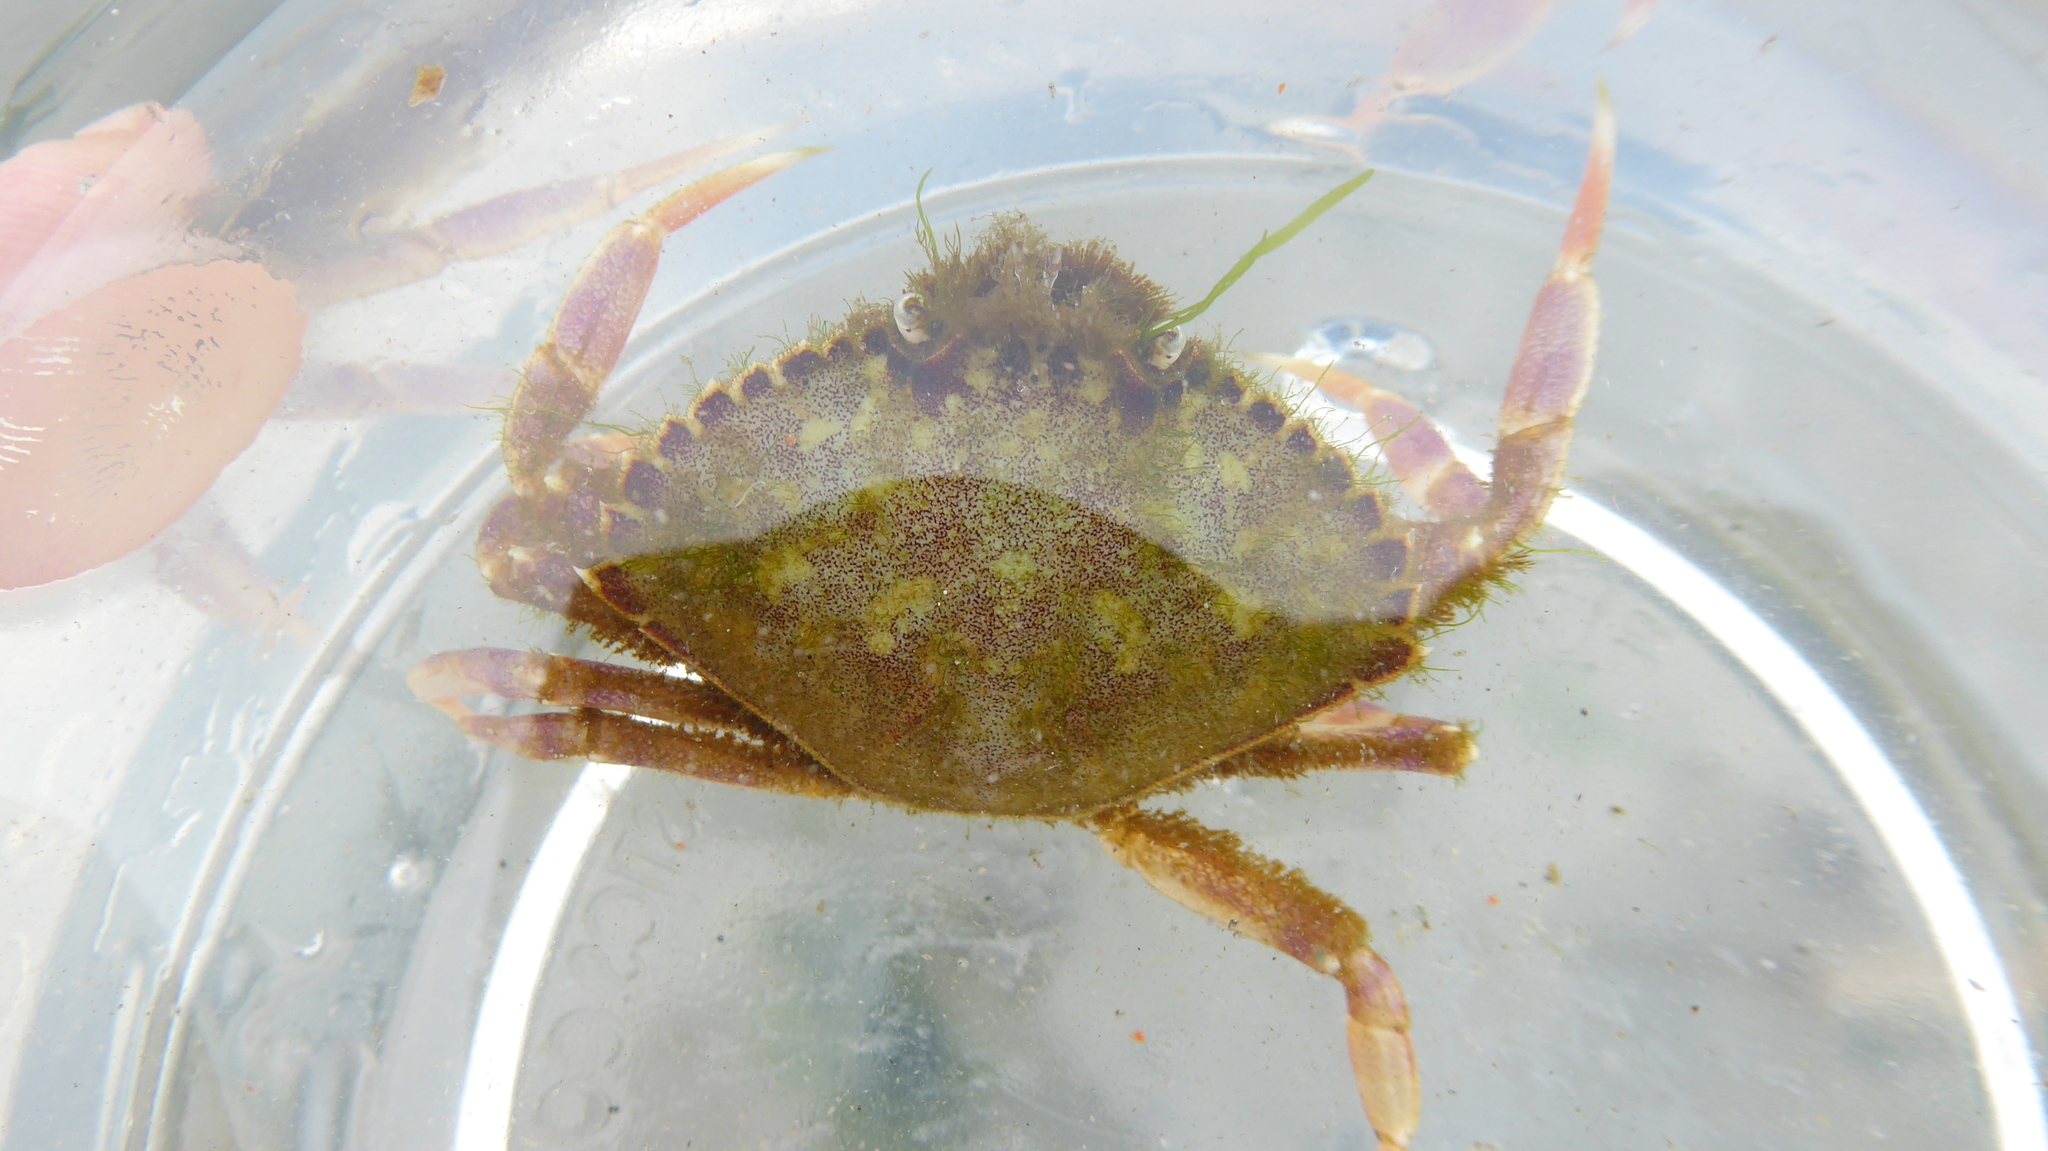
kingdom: Animalia
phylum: Arthropoda
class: Malacostraca
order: Decapoda
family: Cancridae
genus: Metacarcinus
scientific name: Metacarcinus gracilis
